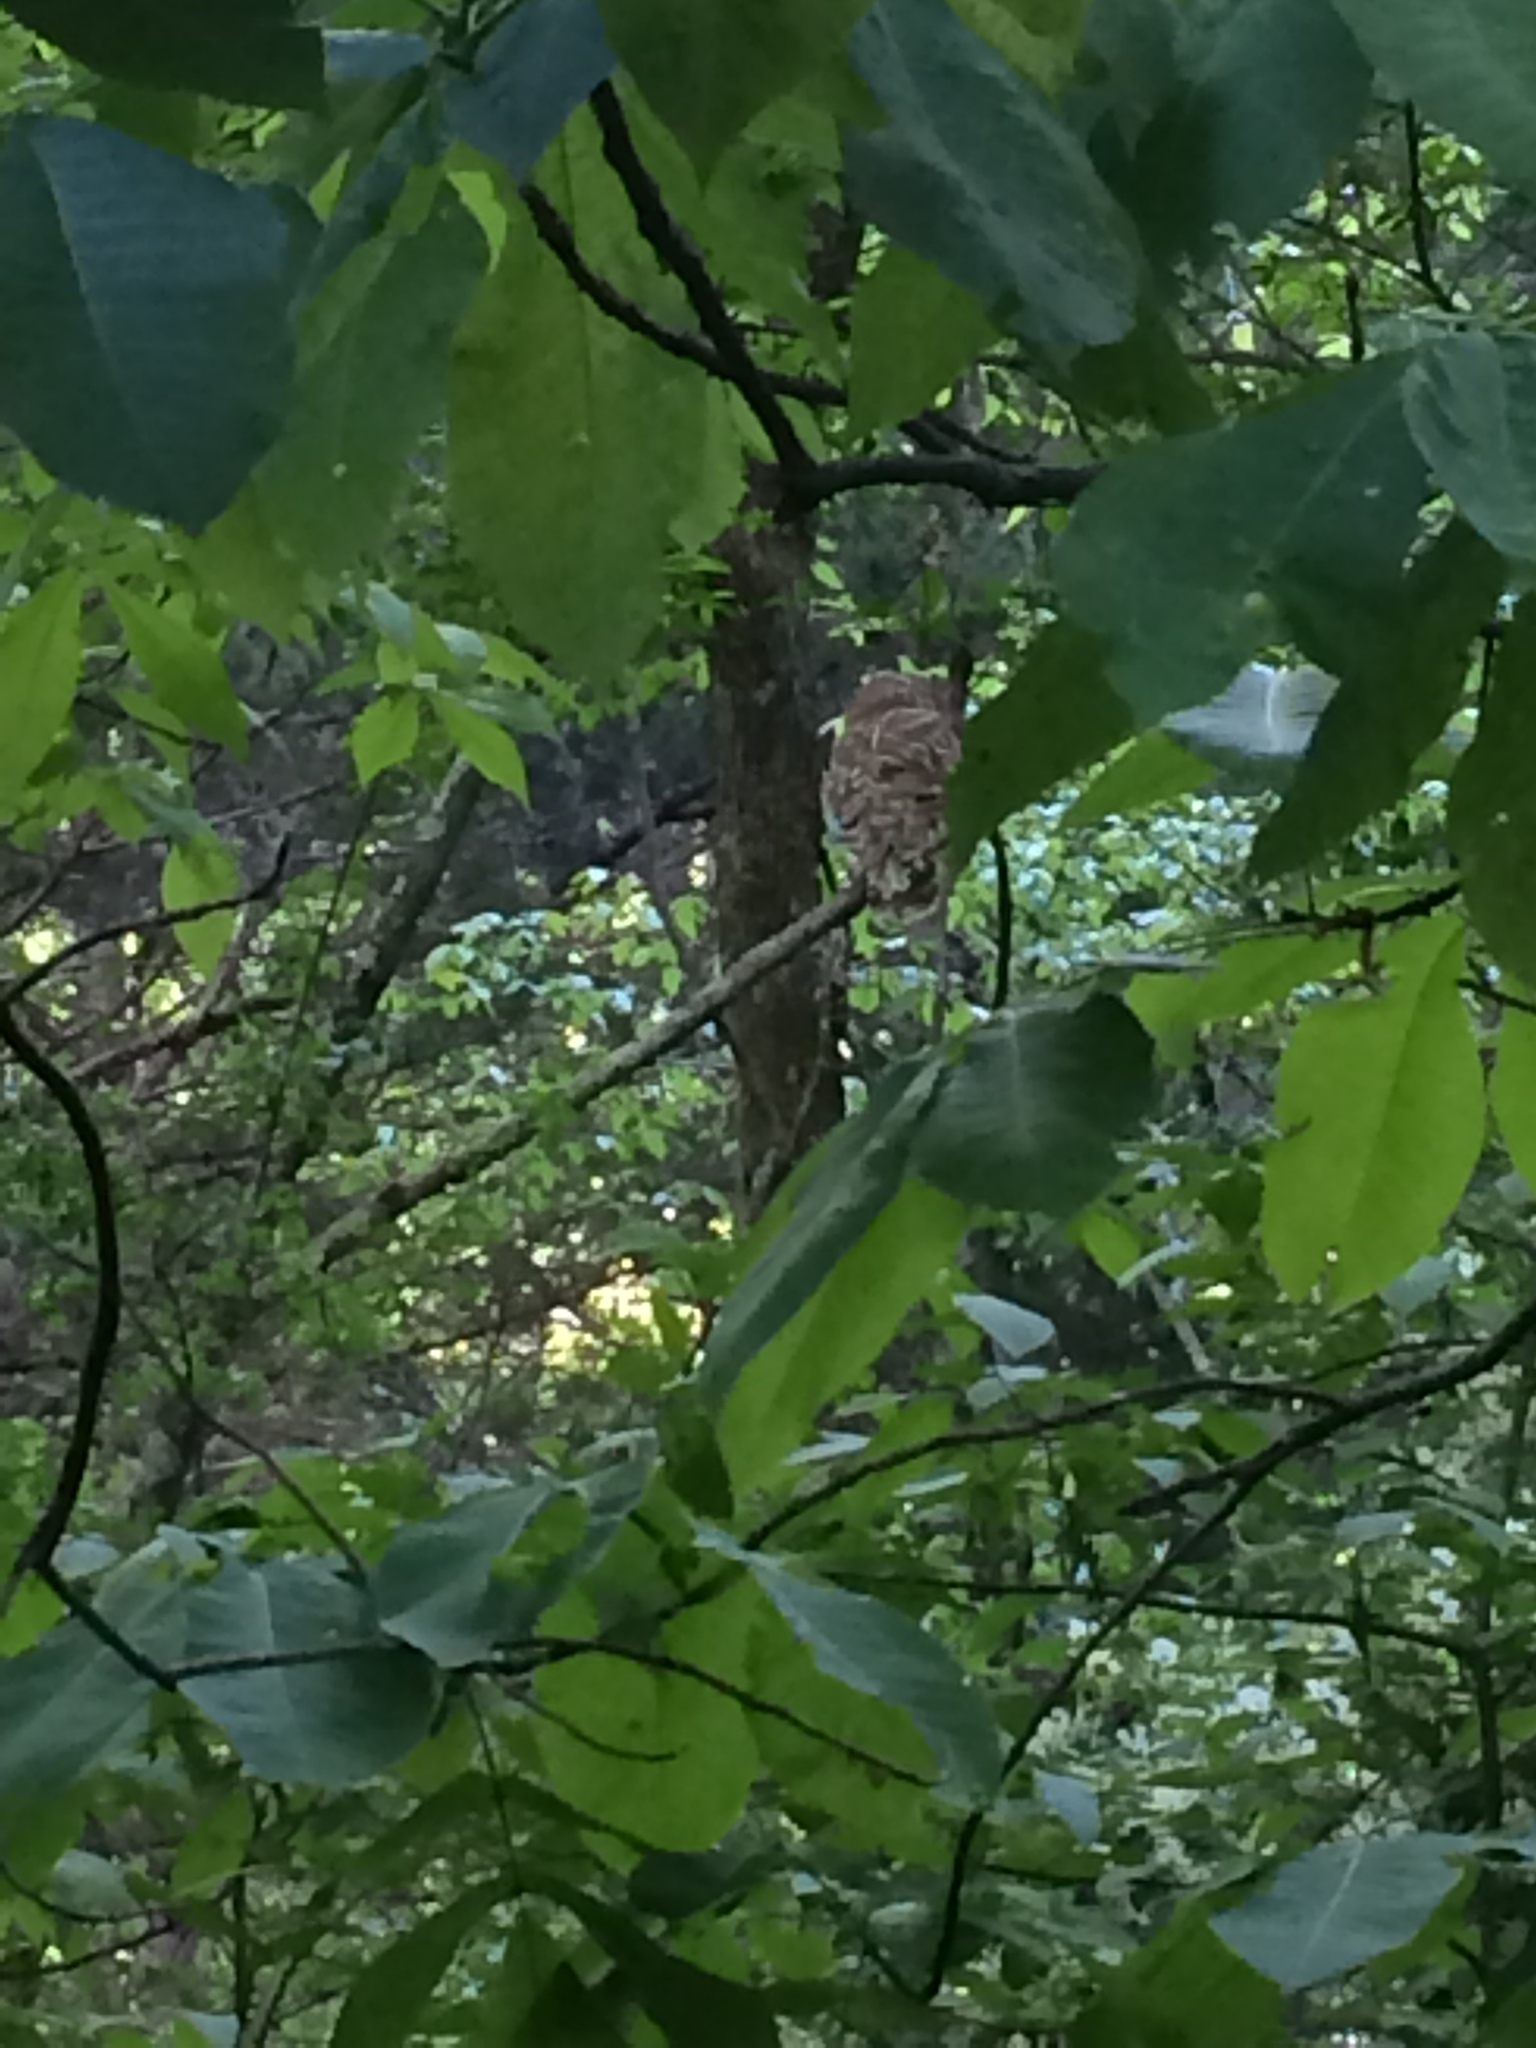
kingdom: Animalia
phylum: Chordata
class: Aves
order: Strigiformes
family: Strigidae
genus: Strix
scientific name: Strix varia
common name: Barred owl
